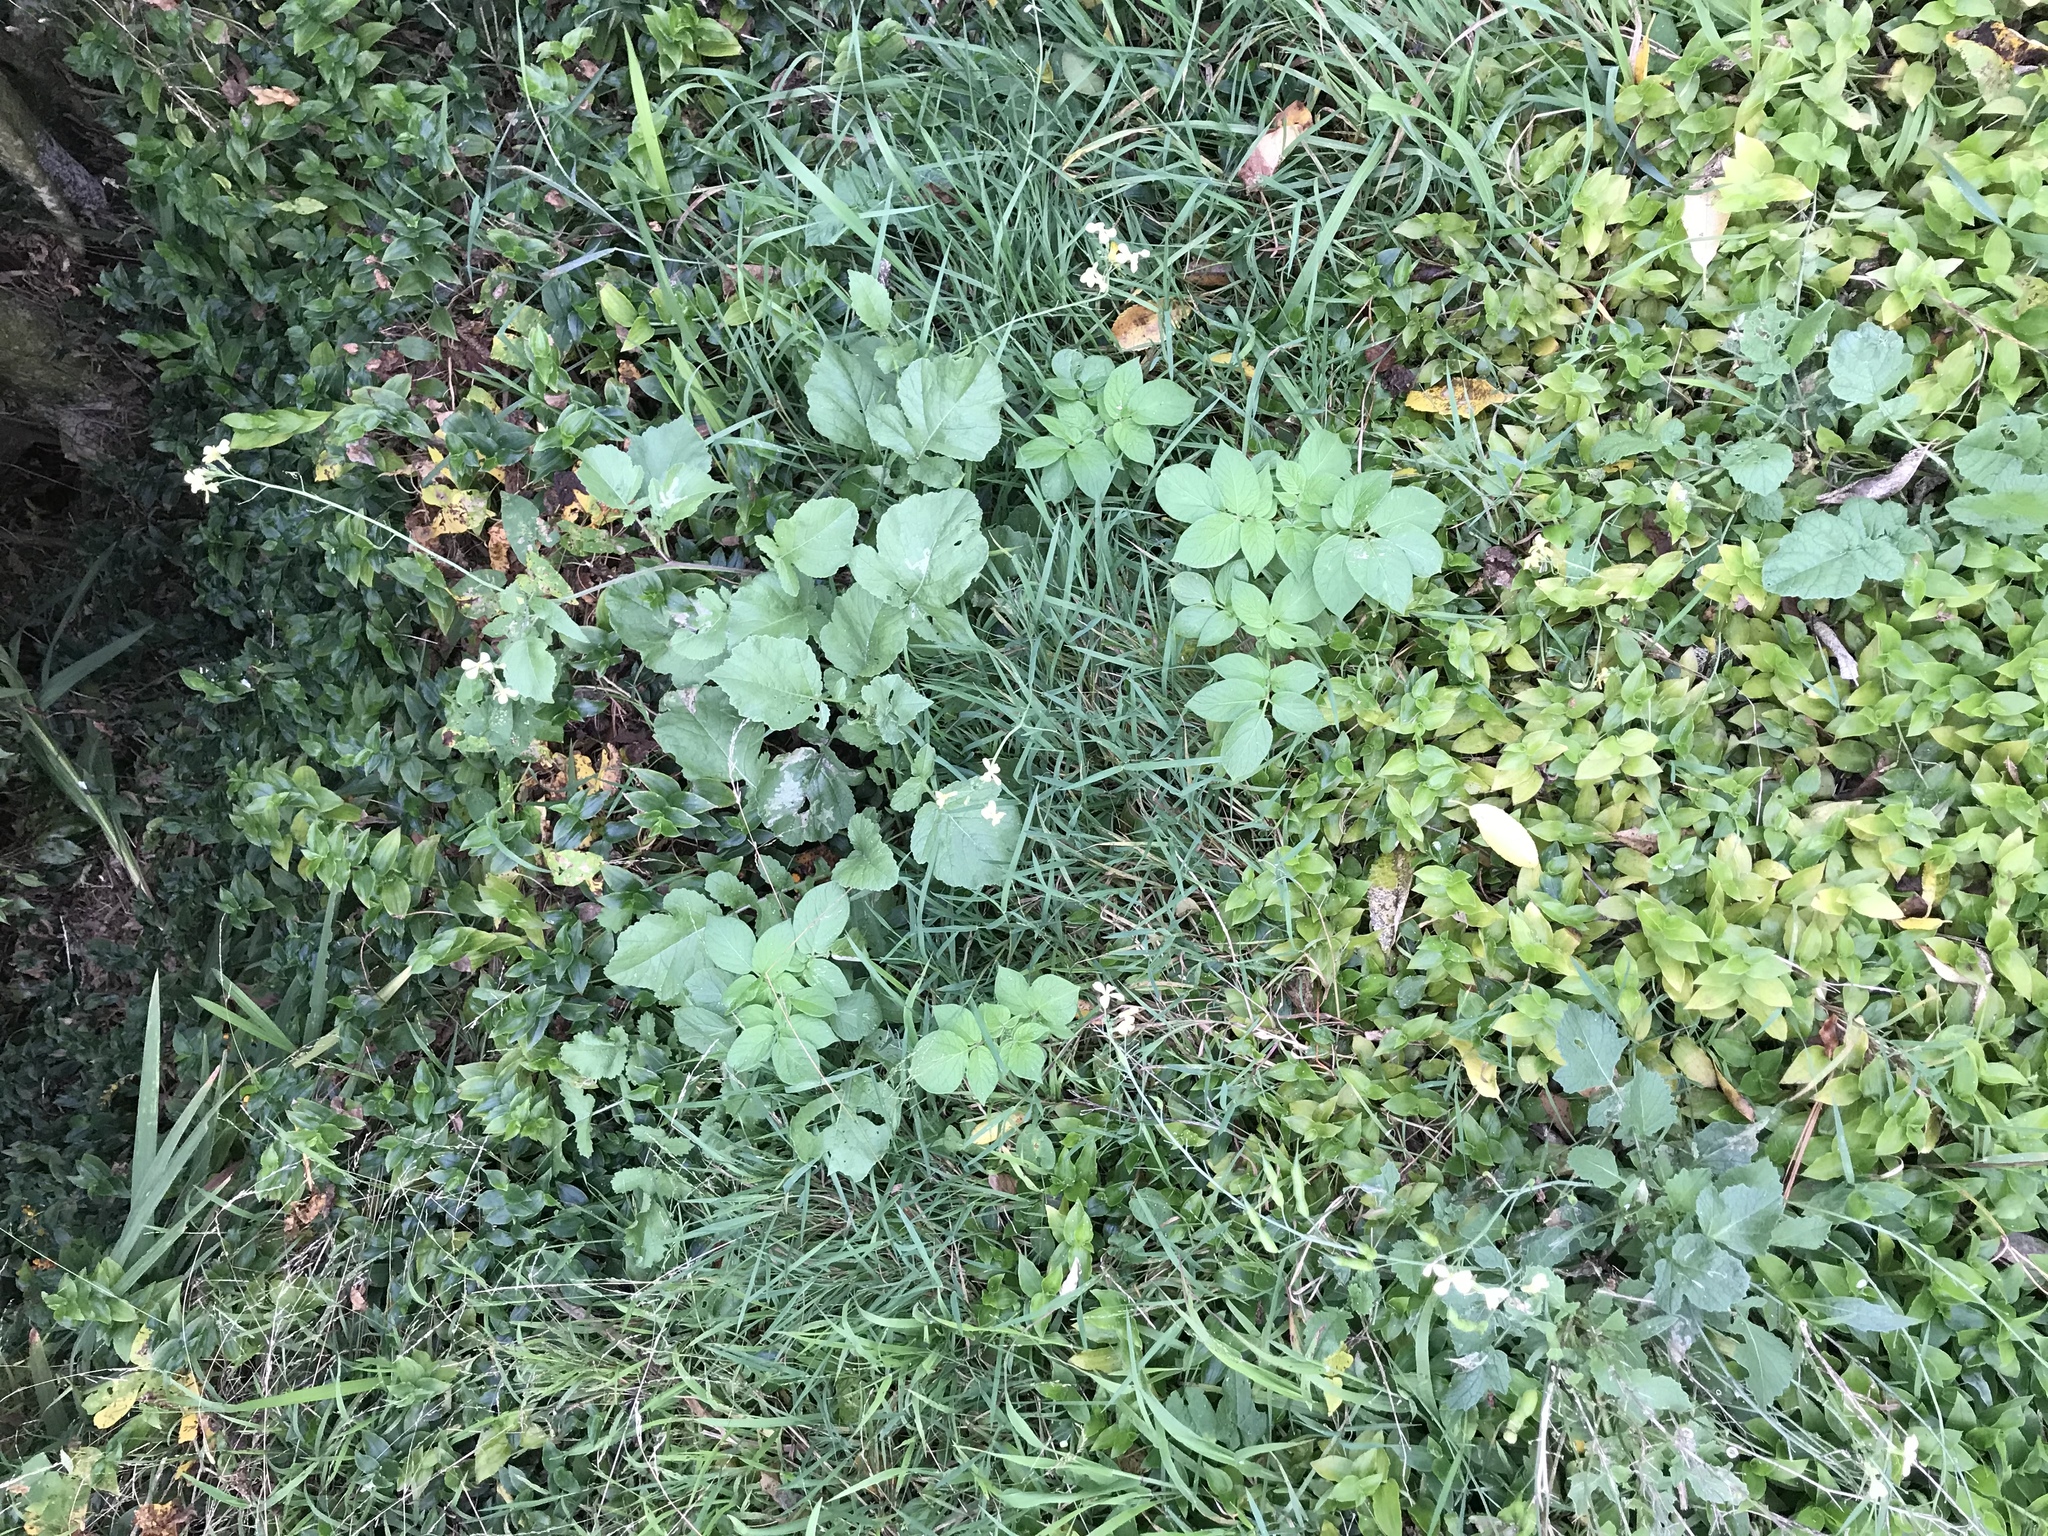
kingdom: Plantae
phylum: Tracheophyta
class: Magnoliopsida
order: Solanales
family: Solanaceae
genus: Solanum
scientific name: Solanum tuberosum
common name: Potato
